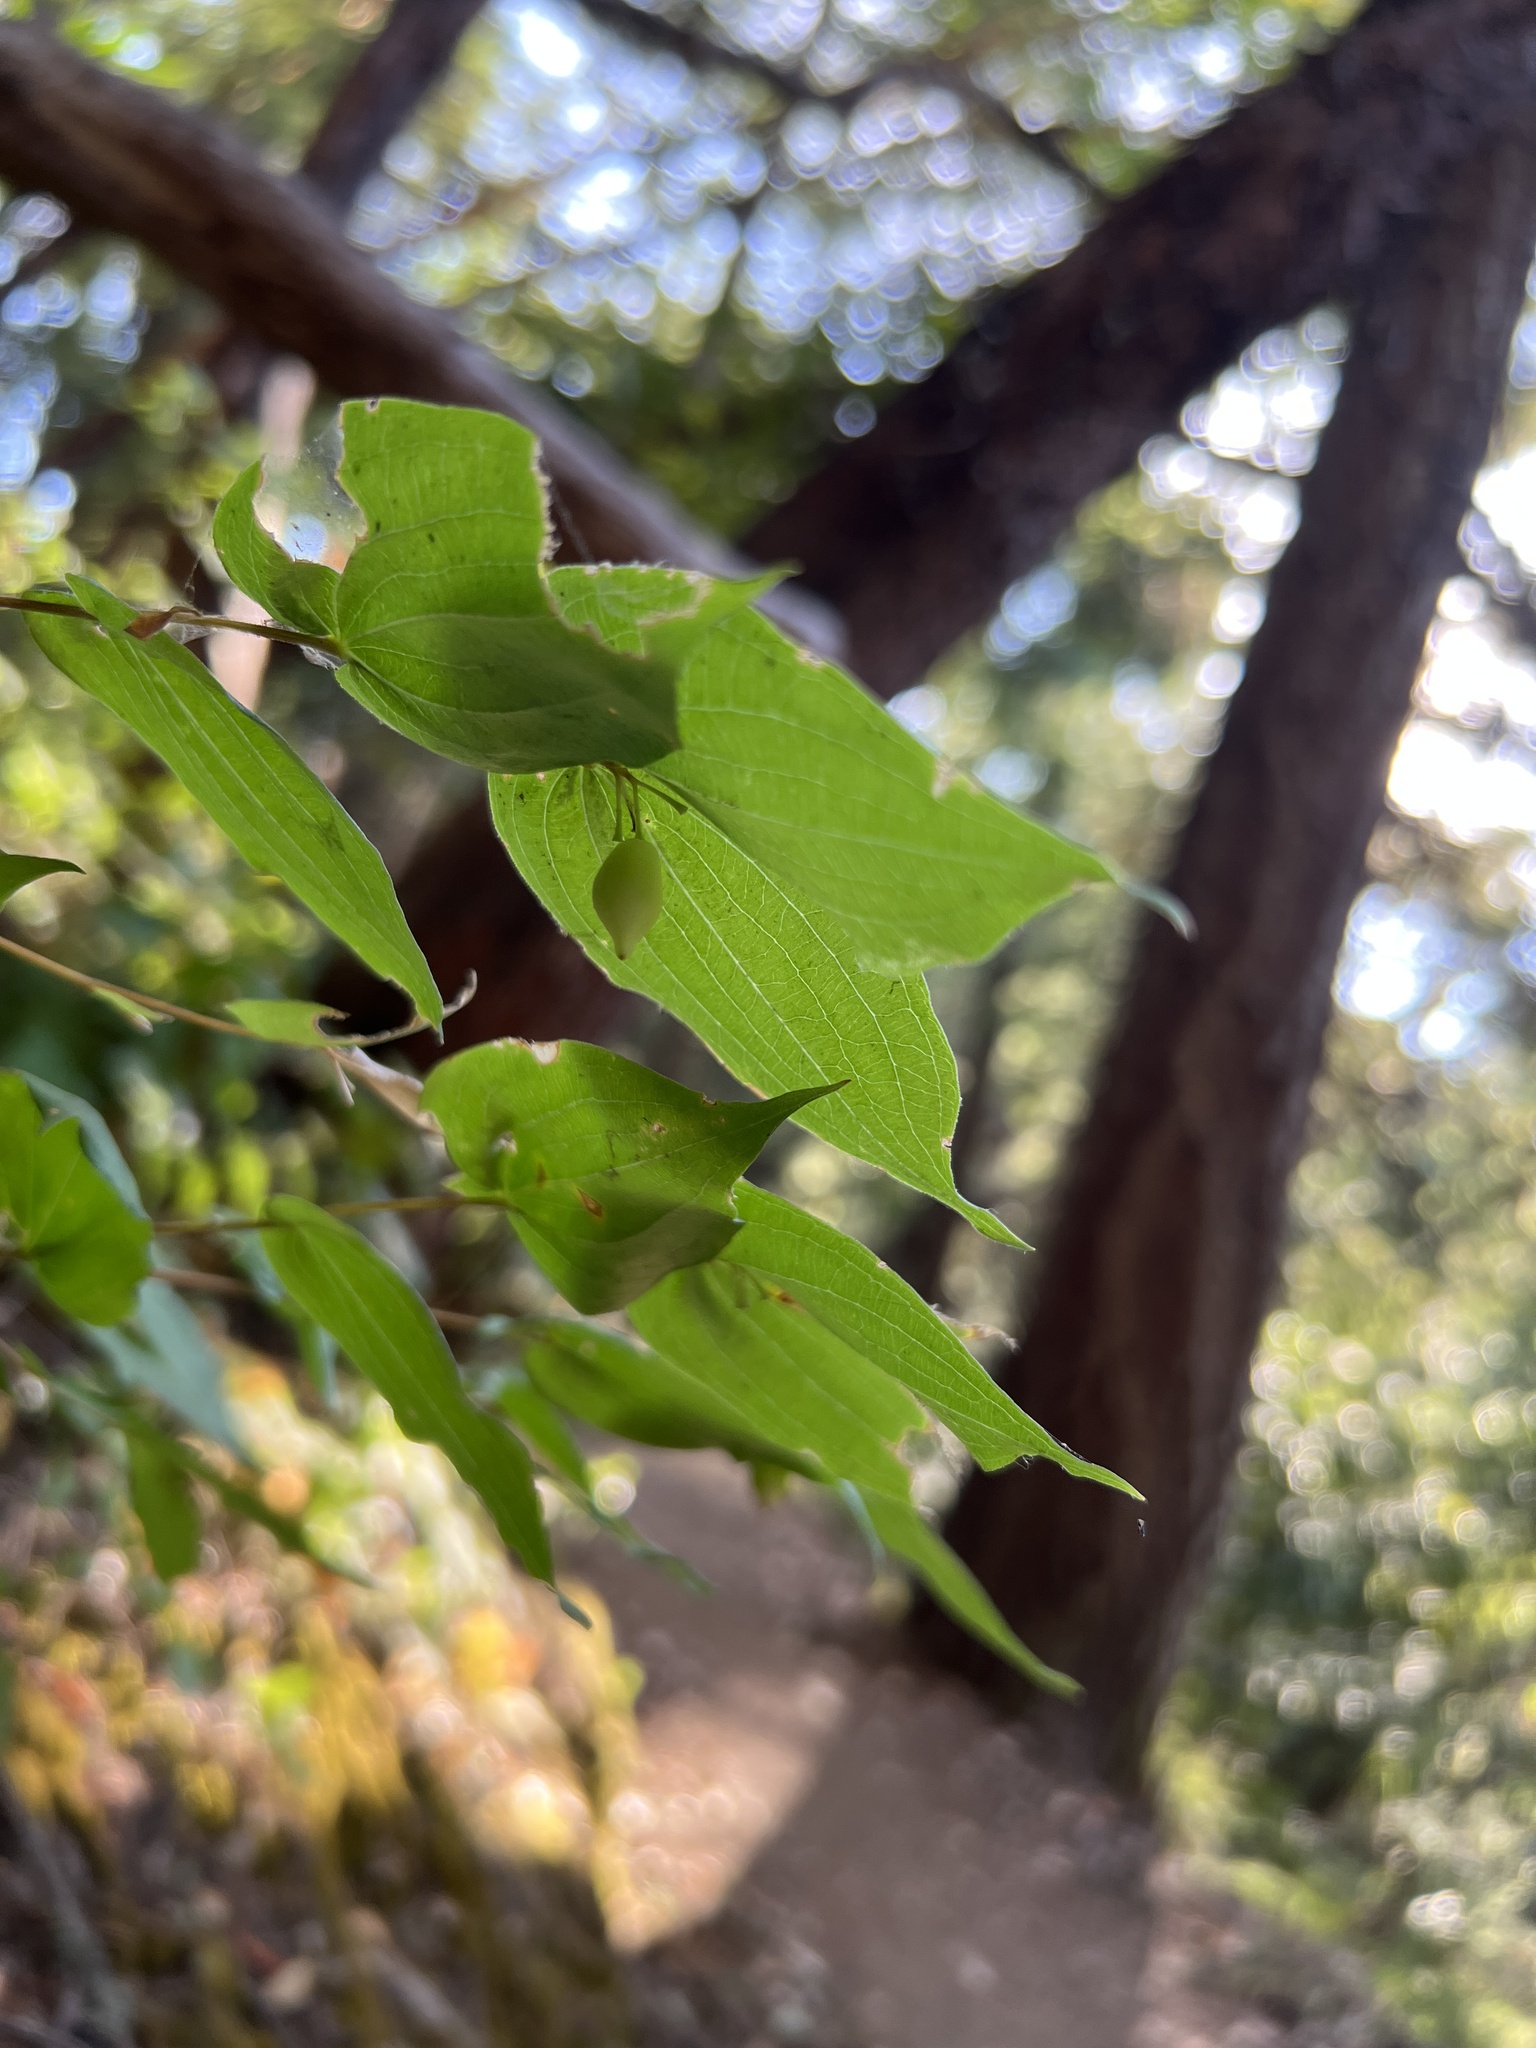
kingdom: Plantae
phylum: Tracheophyta
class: Liliopsida
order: Liliales
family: Liliaceae
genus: Prosartes
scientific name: Prosartes hookeri
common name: Fairy-bells
